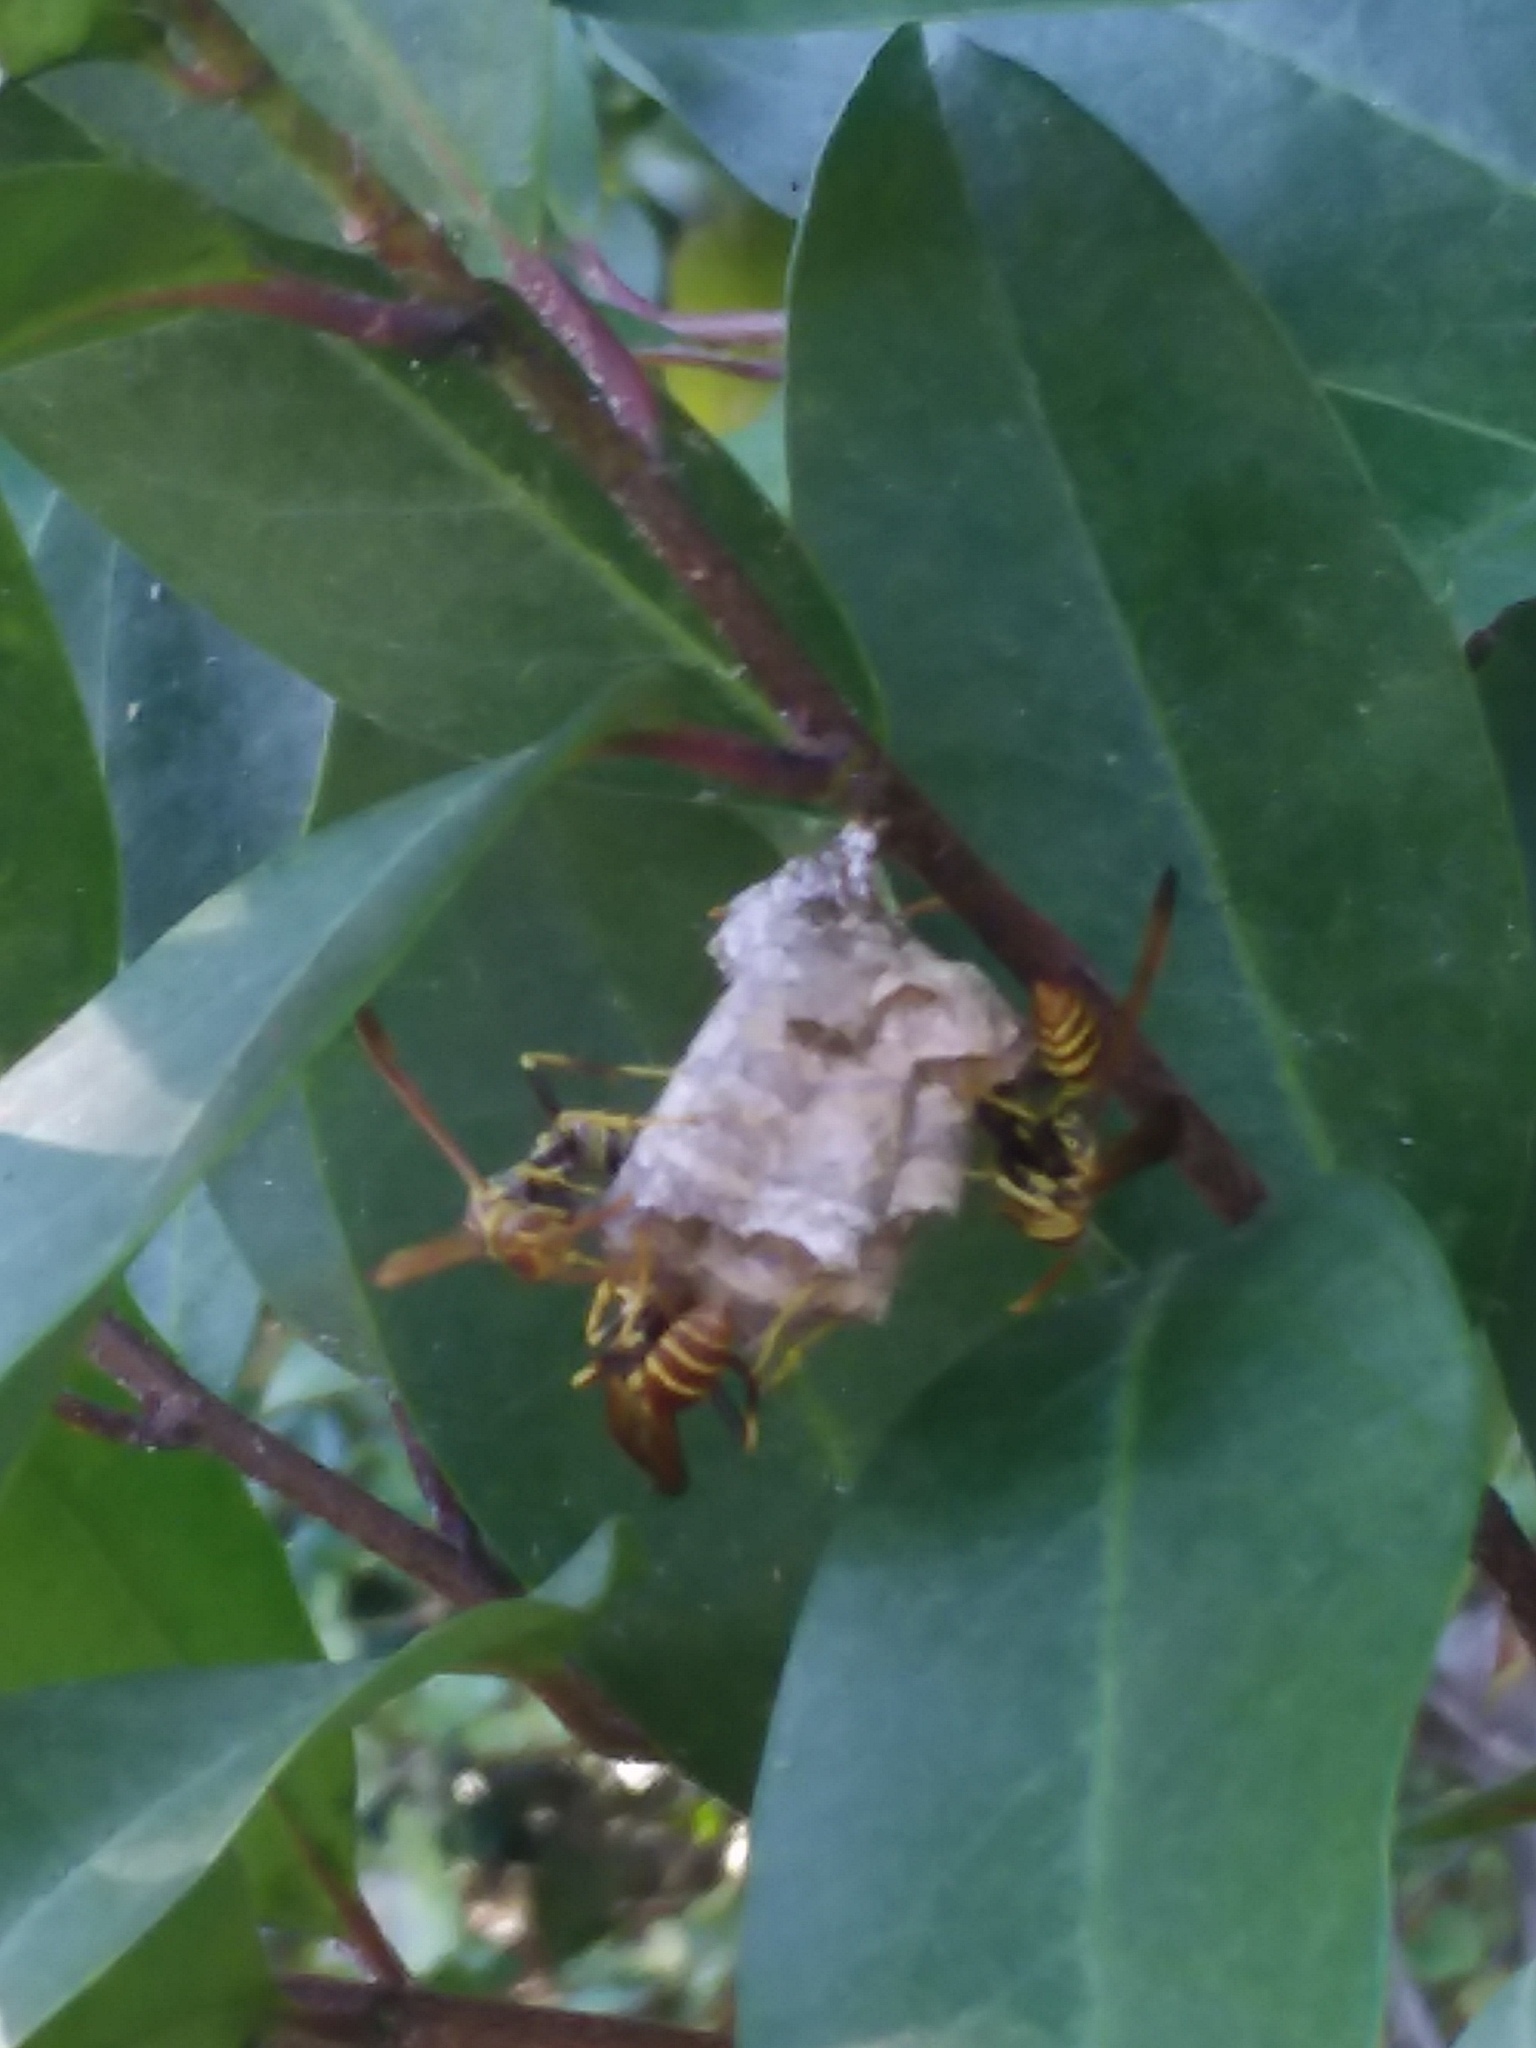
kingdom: Animalia
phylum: Arthropoda
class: Insecta
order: Hymenoptera
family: Vespidae
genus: Mischocyttarus
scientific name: Mischocyttarus mexicanus
